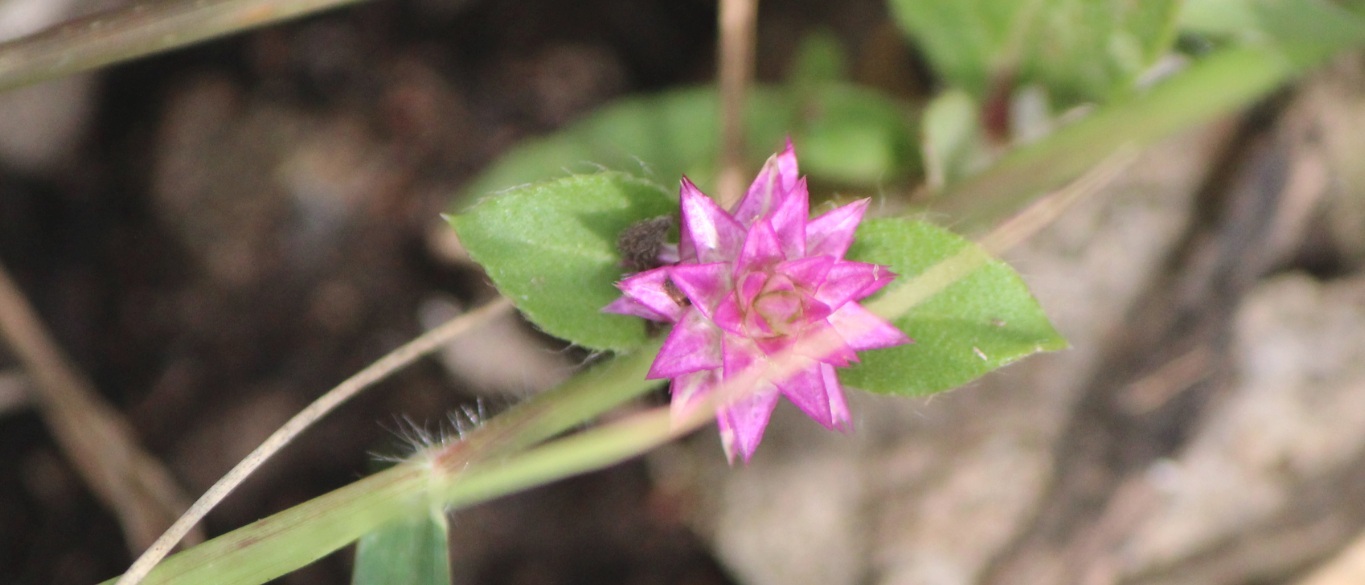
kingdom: Plantae
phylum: Tracheophyta
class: Magnoliopsida
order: Caryophyllales
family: Amaranthaceae
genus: Gomphrena
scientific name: Gomphrena serrata
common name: Arrasa con todo
